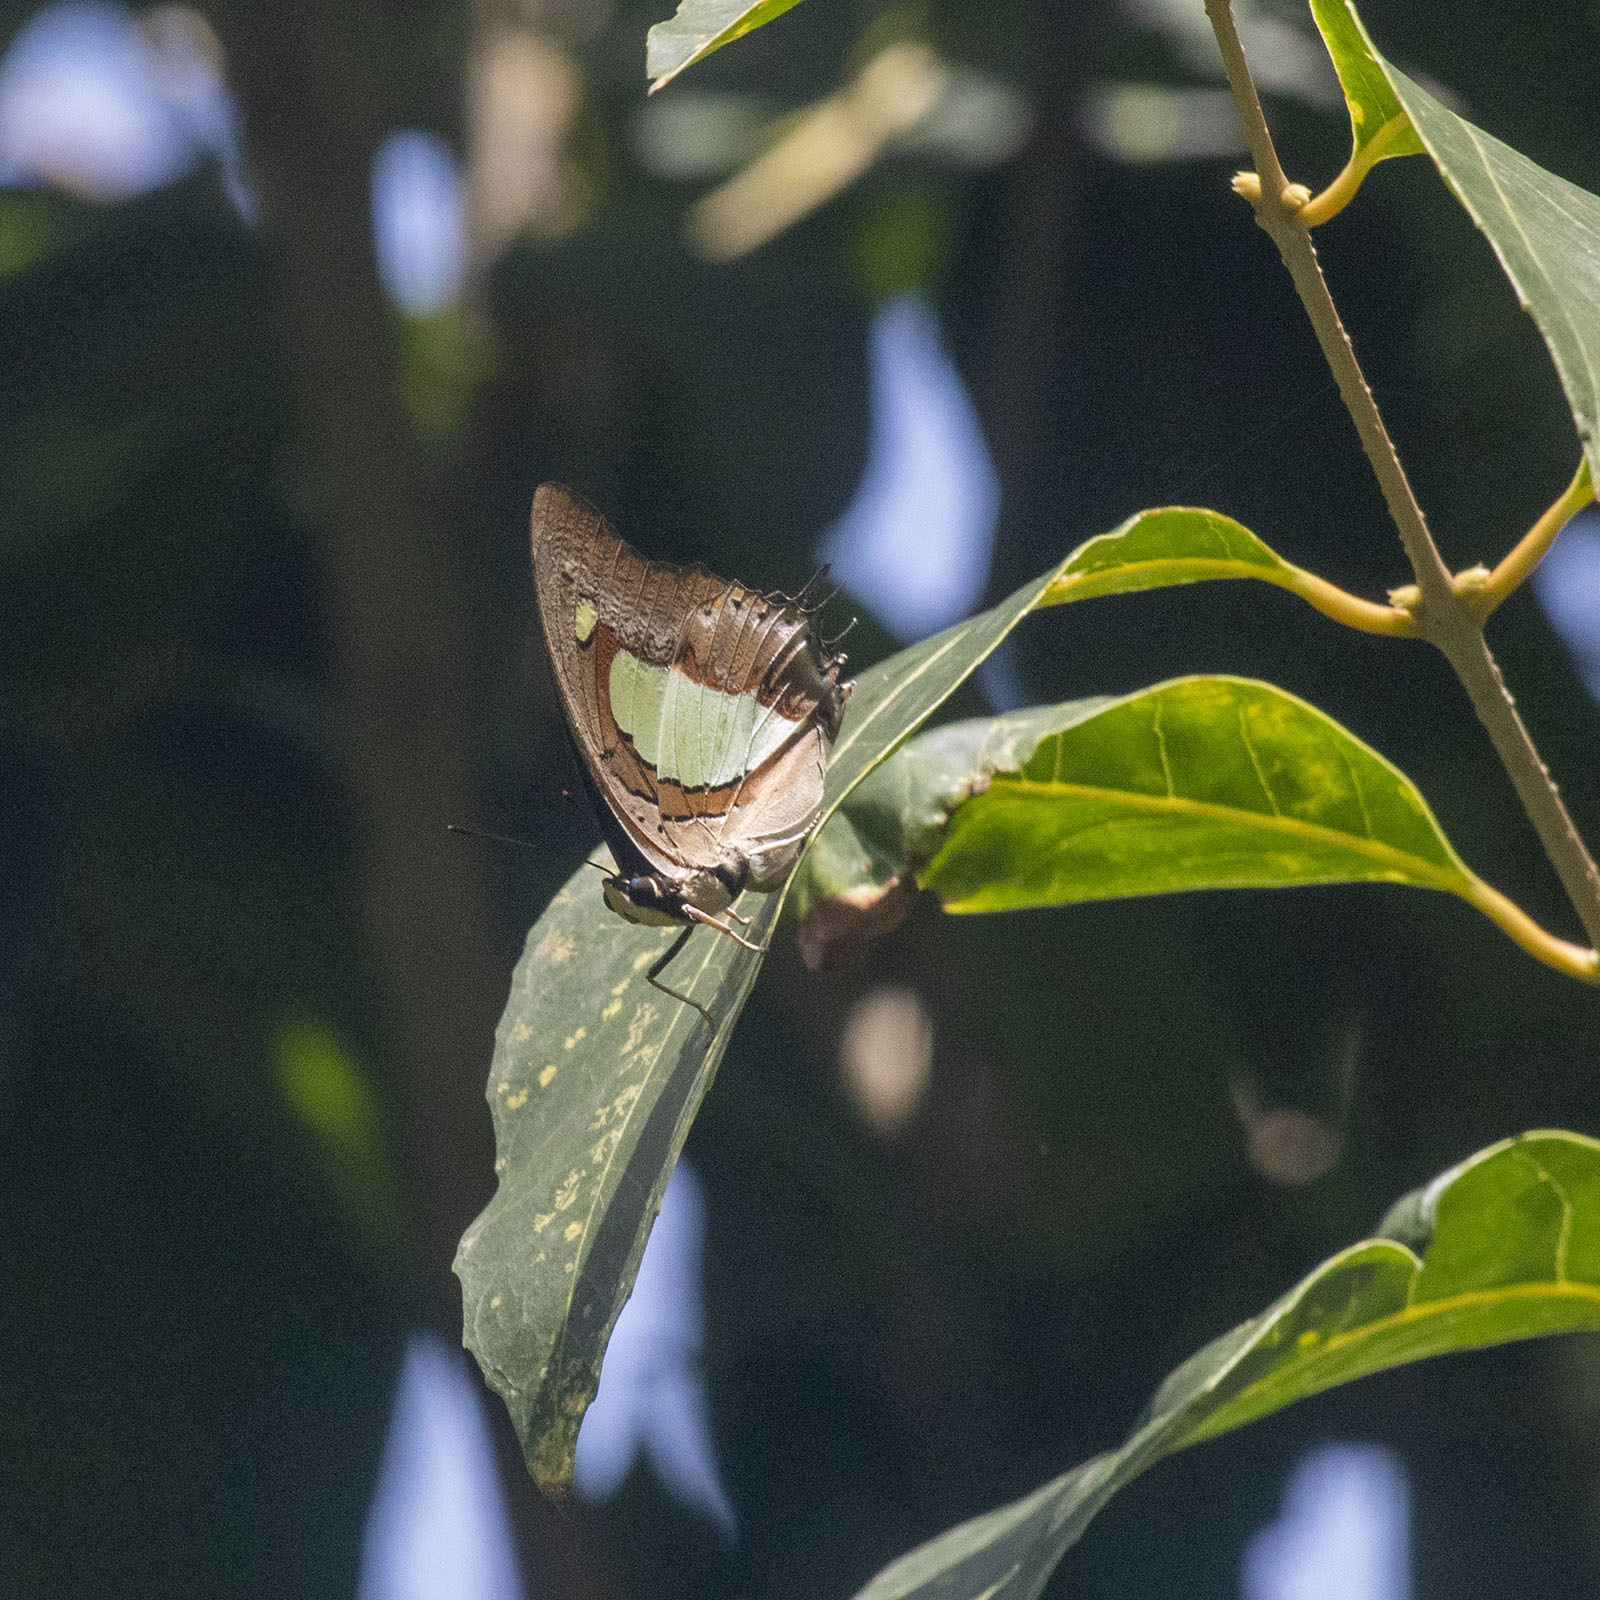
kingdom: Animalia
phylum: Arthropoda
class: Insecta
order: Lepidoptera
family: Nymphalidae
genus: Polyura
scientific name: Polyura
